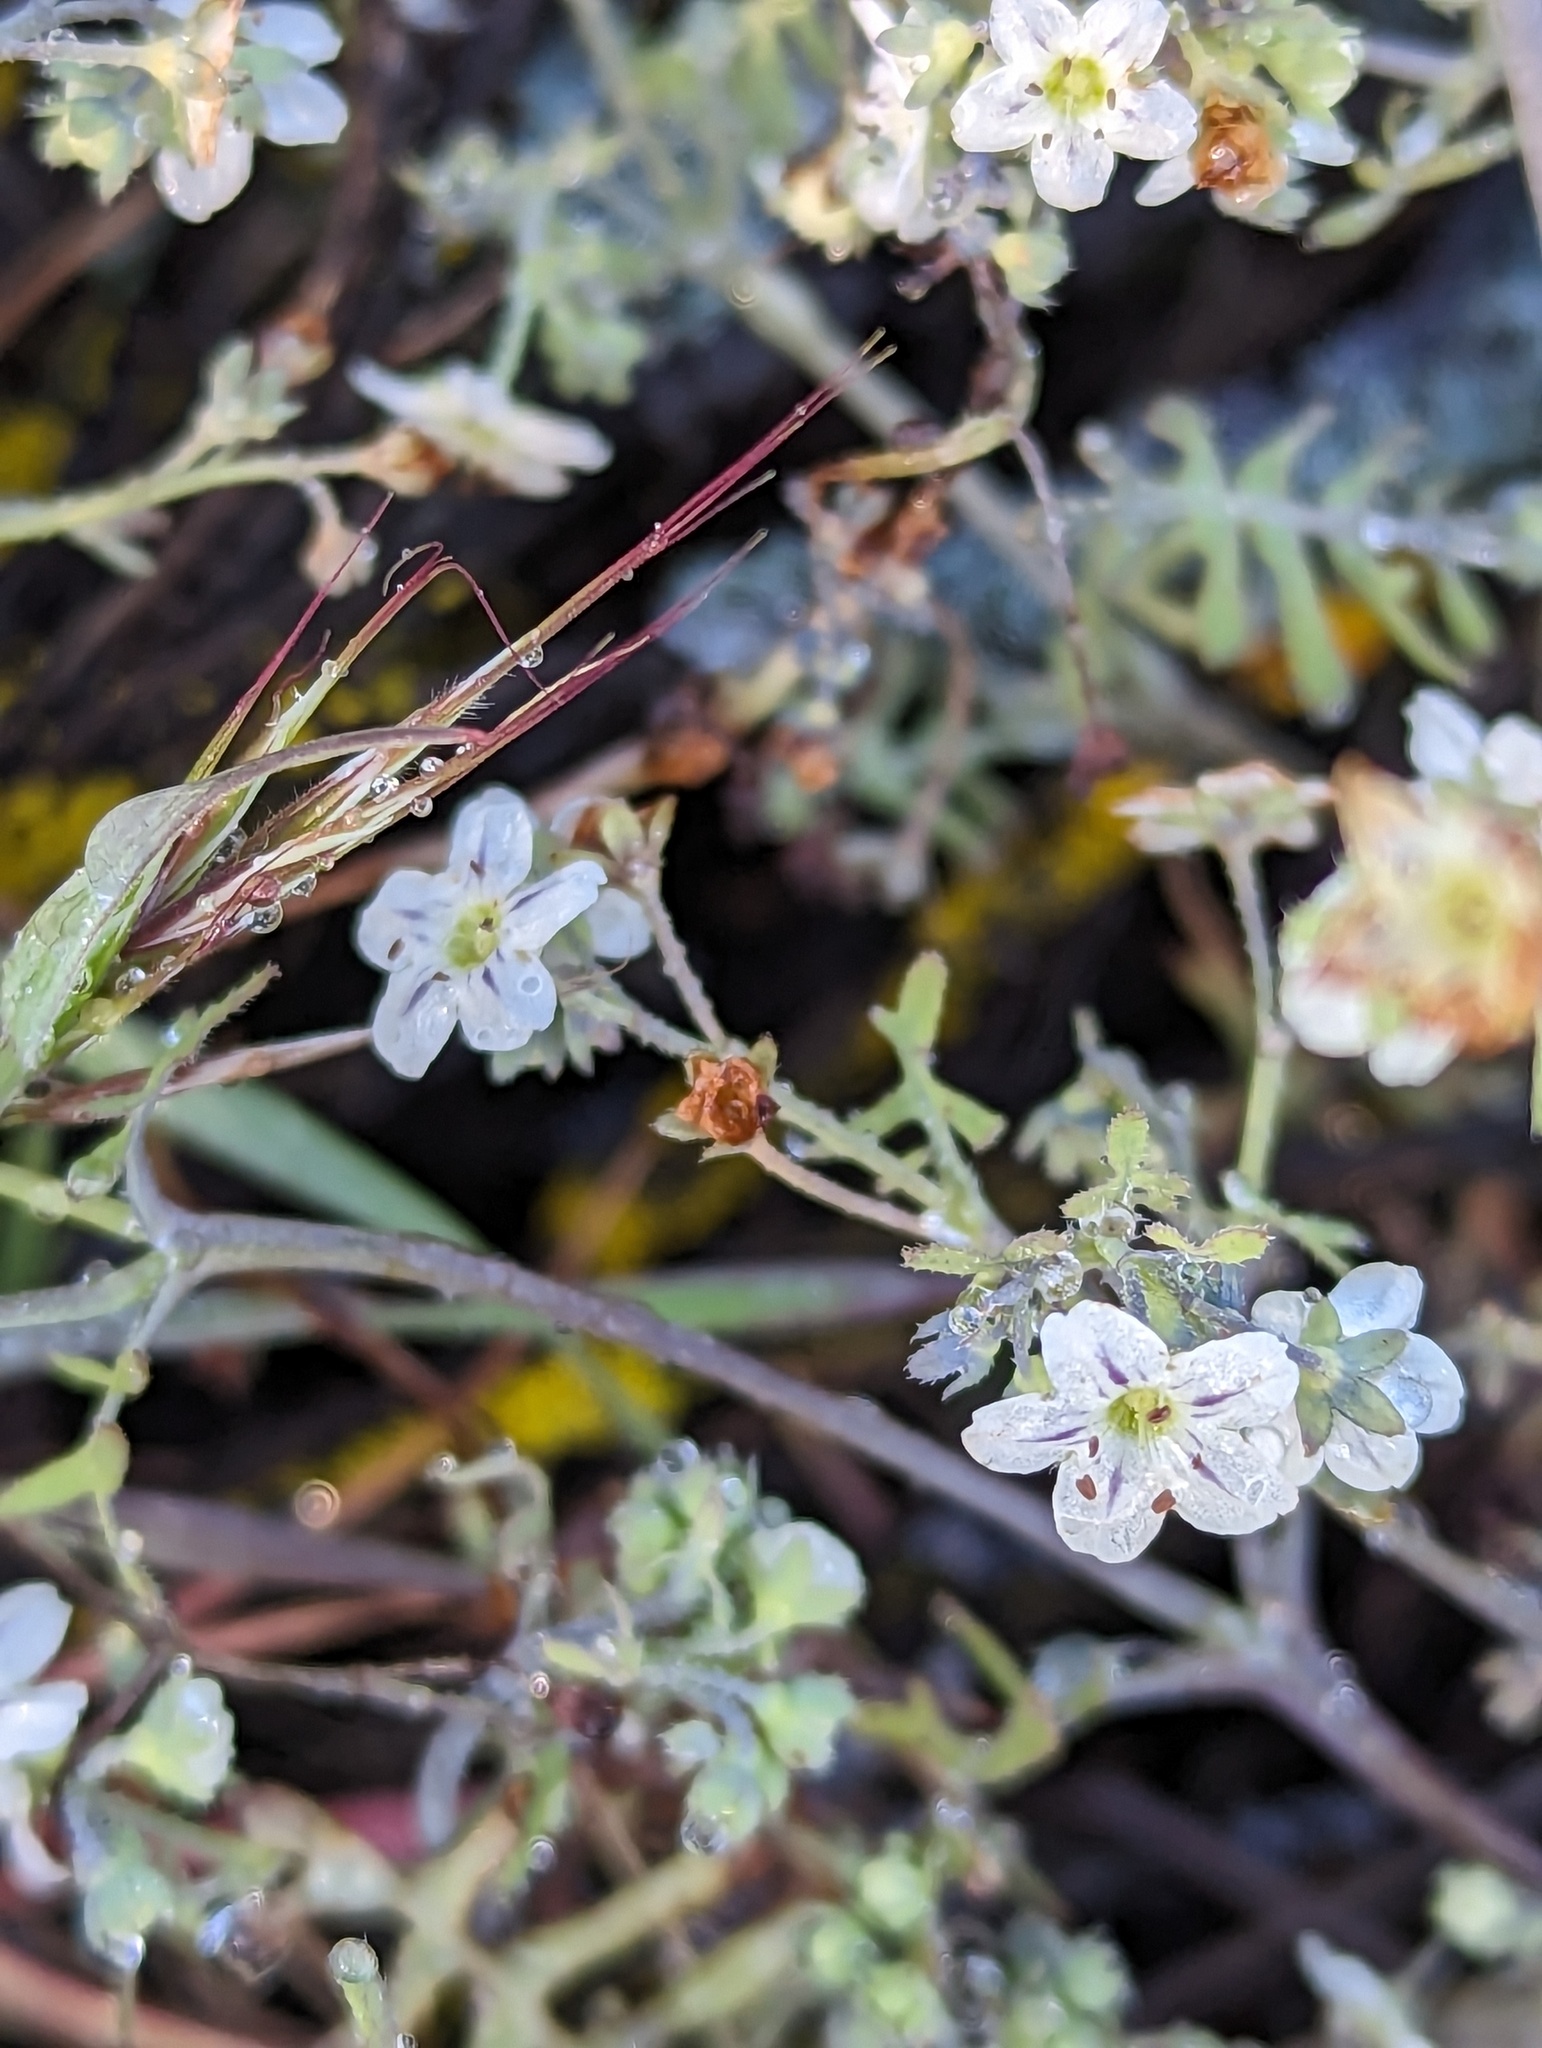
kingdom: Plantae
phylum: Tracheophyta
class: Magnoliopsida
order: Boraginales
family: Hydrophyllaceae
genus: Pholistoma
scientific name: Pholistoma membranaceum
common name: White fiesta-flower
